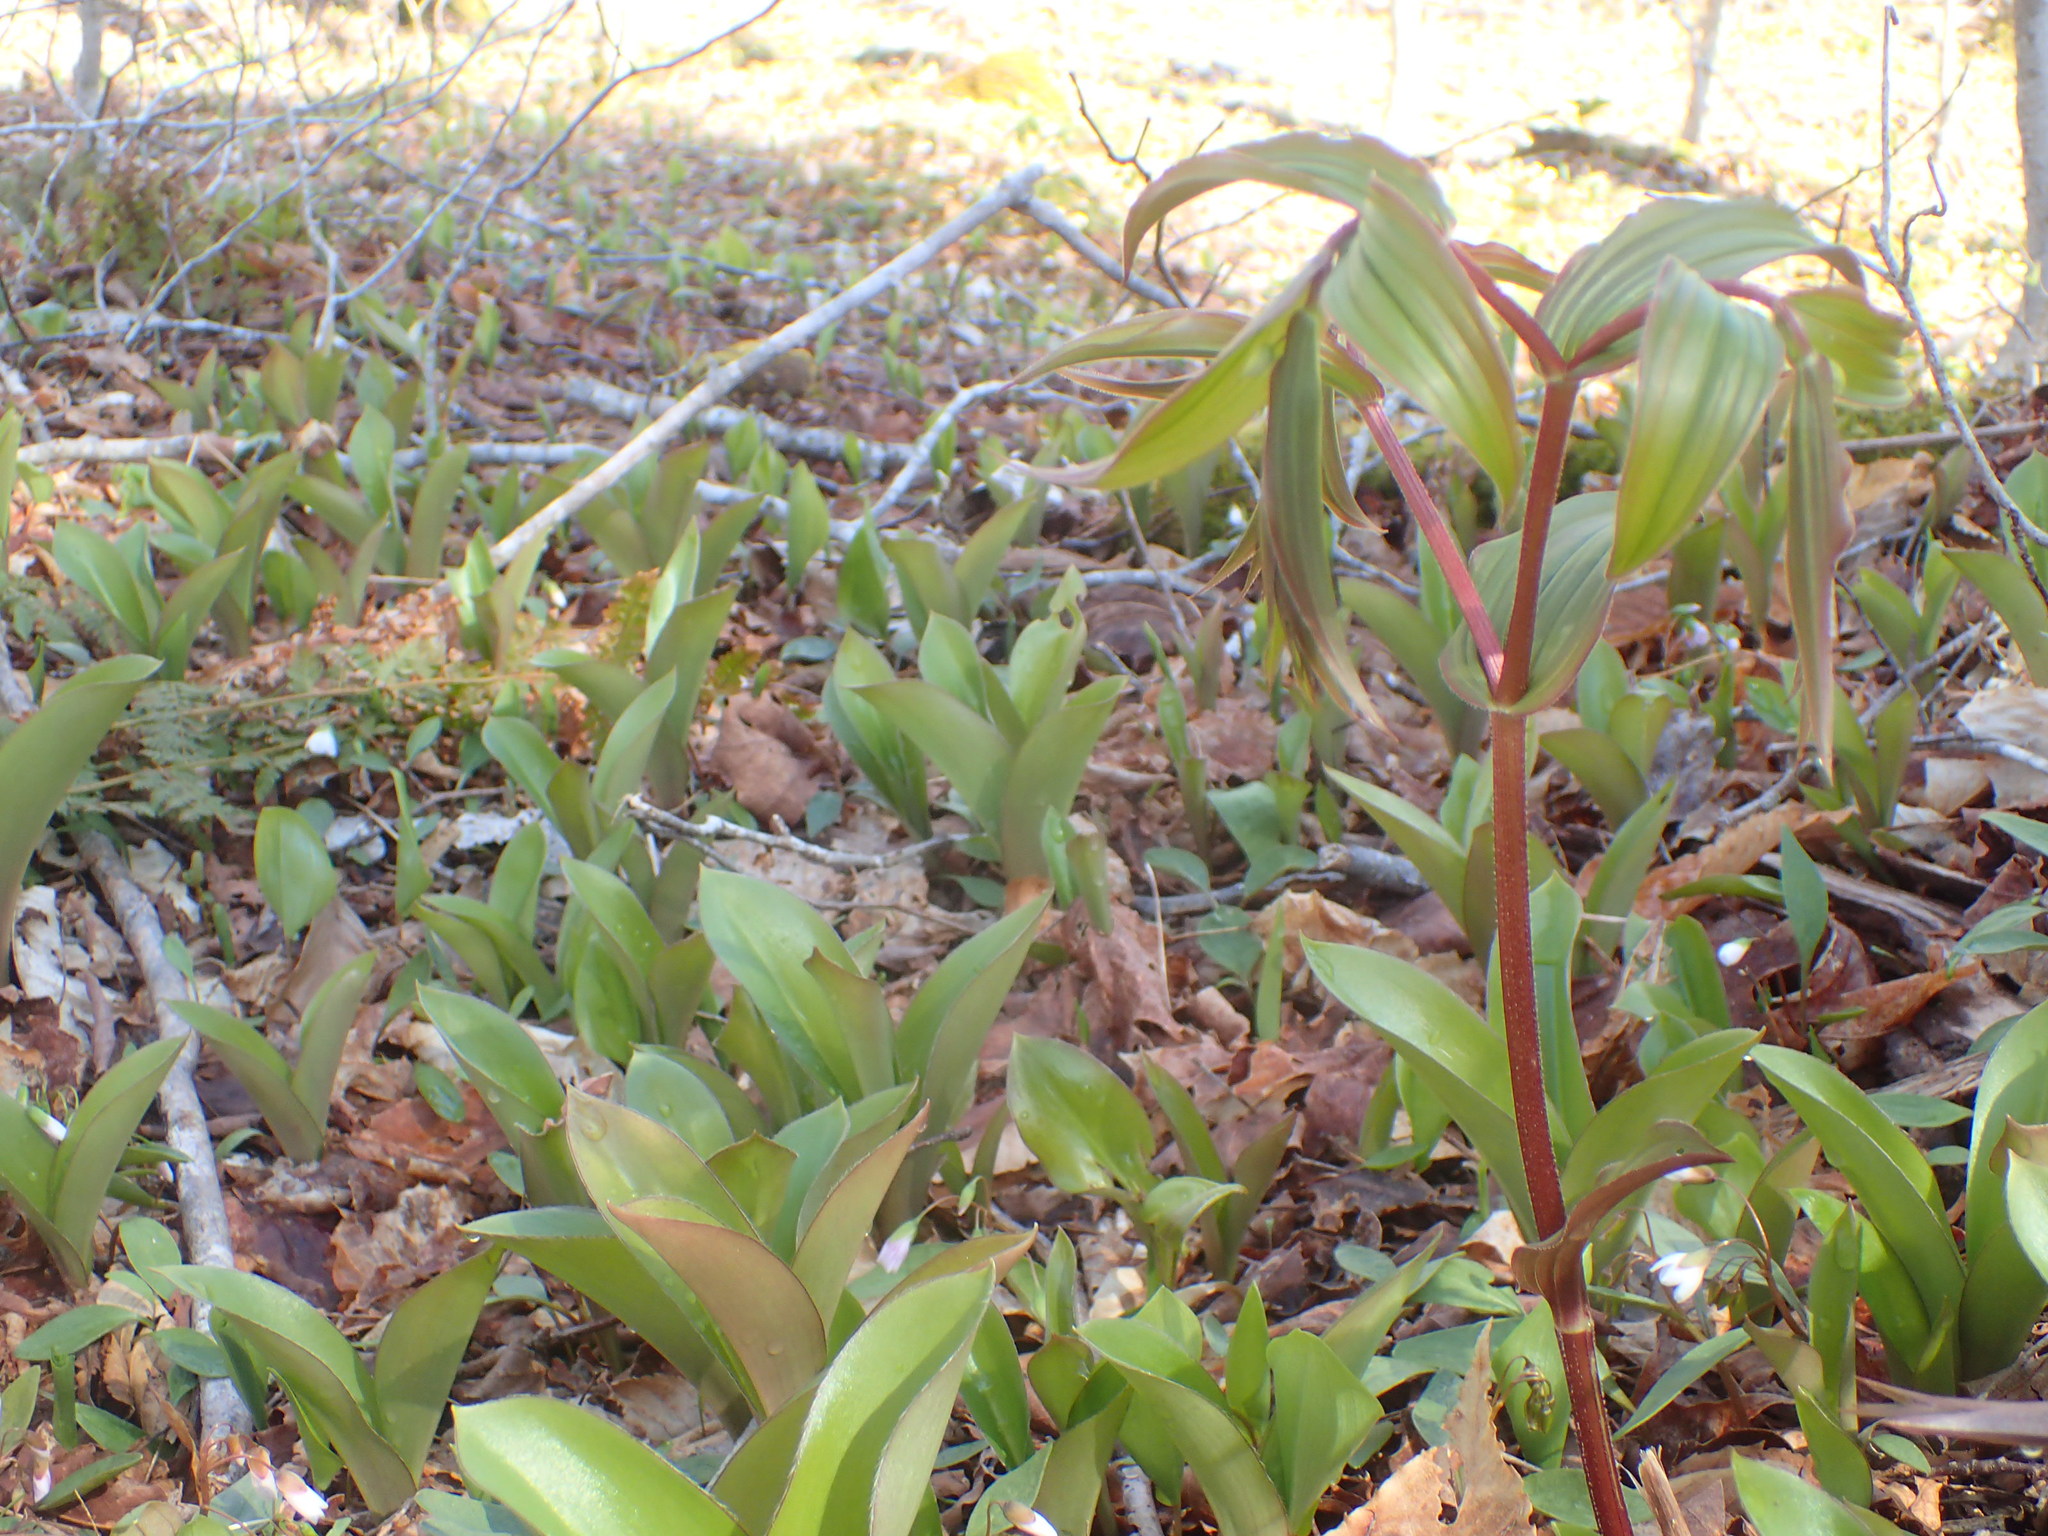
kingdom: Plantae
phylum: Tracheophyta
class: Liliopsida
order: Liliales
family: Liliaceae
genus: Streptopus
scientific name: Streptopus lanceolatus
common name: Rose mandarin
